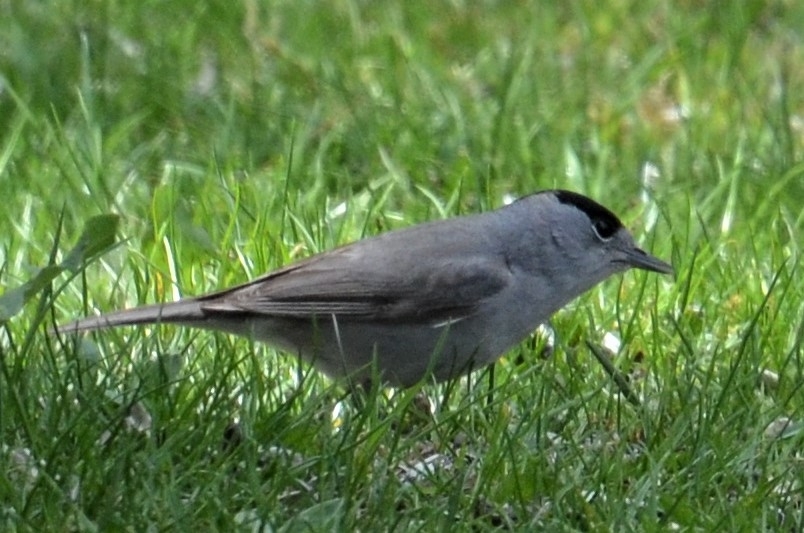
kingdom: Animalia
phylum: Chordata
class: Aves
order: Passeriformes
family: Sylviidae
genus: Sylvia
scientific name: Sylvia atricapilla
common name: Eurasian blackcap
